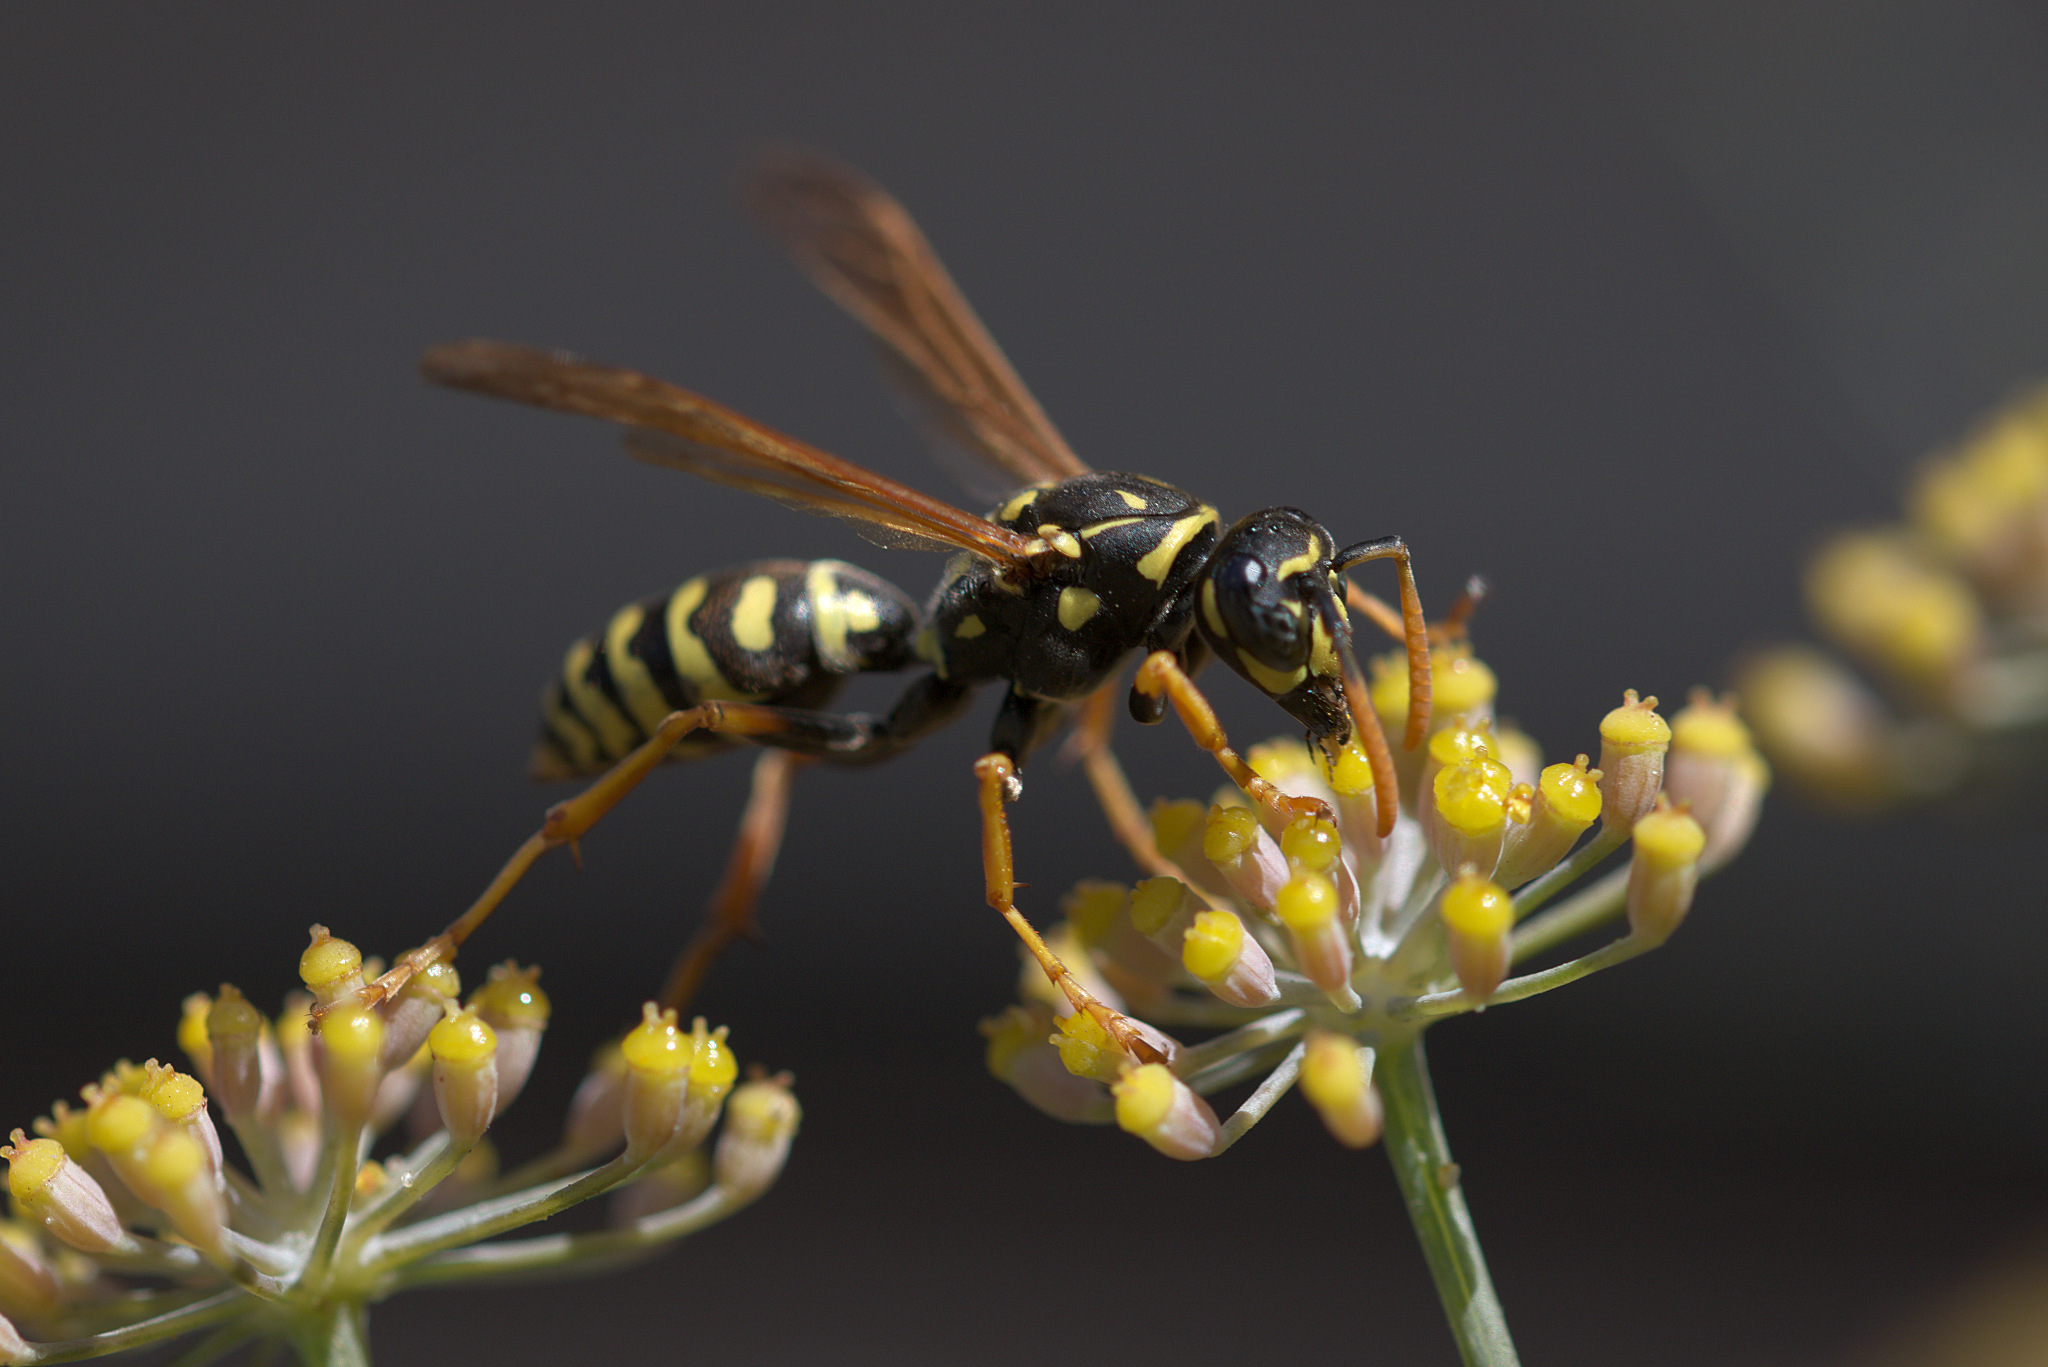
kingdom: Animalia
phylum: Arthropoda
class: Insecta
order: Hymenoptera
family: Eumenidae
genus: Polistes
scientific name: Polistes dominula
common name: Paper wasp
